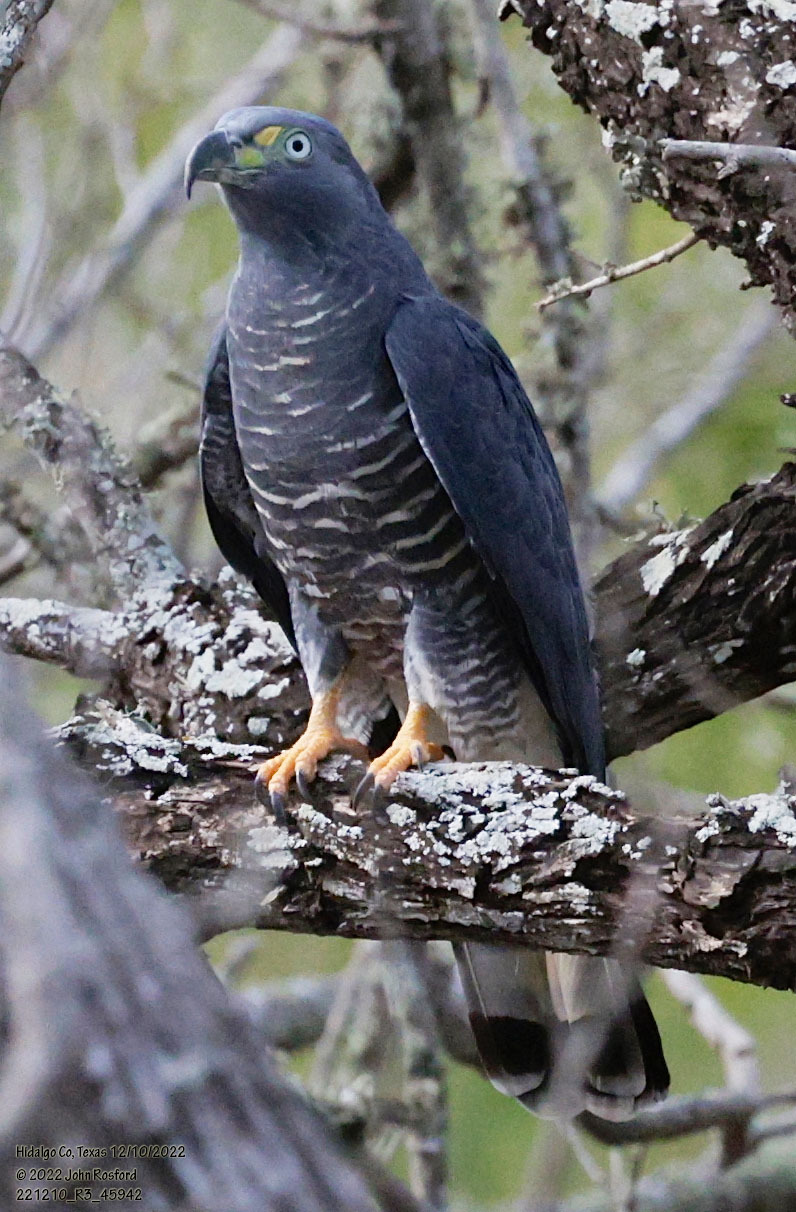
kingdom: Animalia
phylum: Chordata
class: Aves
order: Accipitriformes
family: Accipitridae
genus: Chondrohierax
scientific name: Chondrohierax uncinatus
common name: Hook-billed kite
